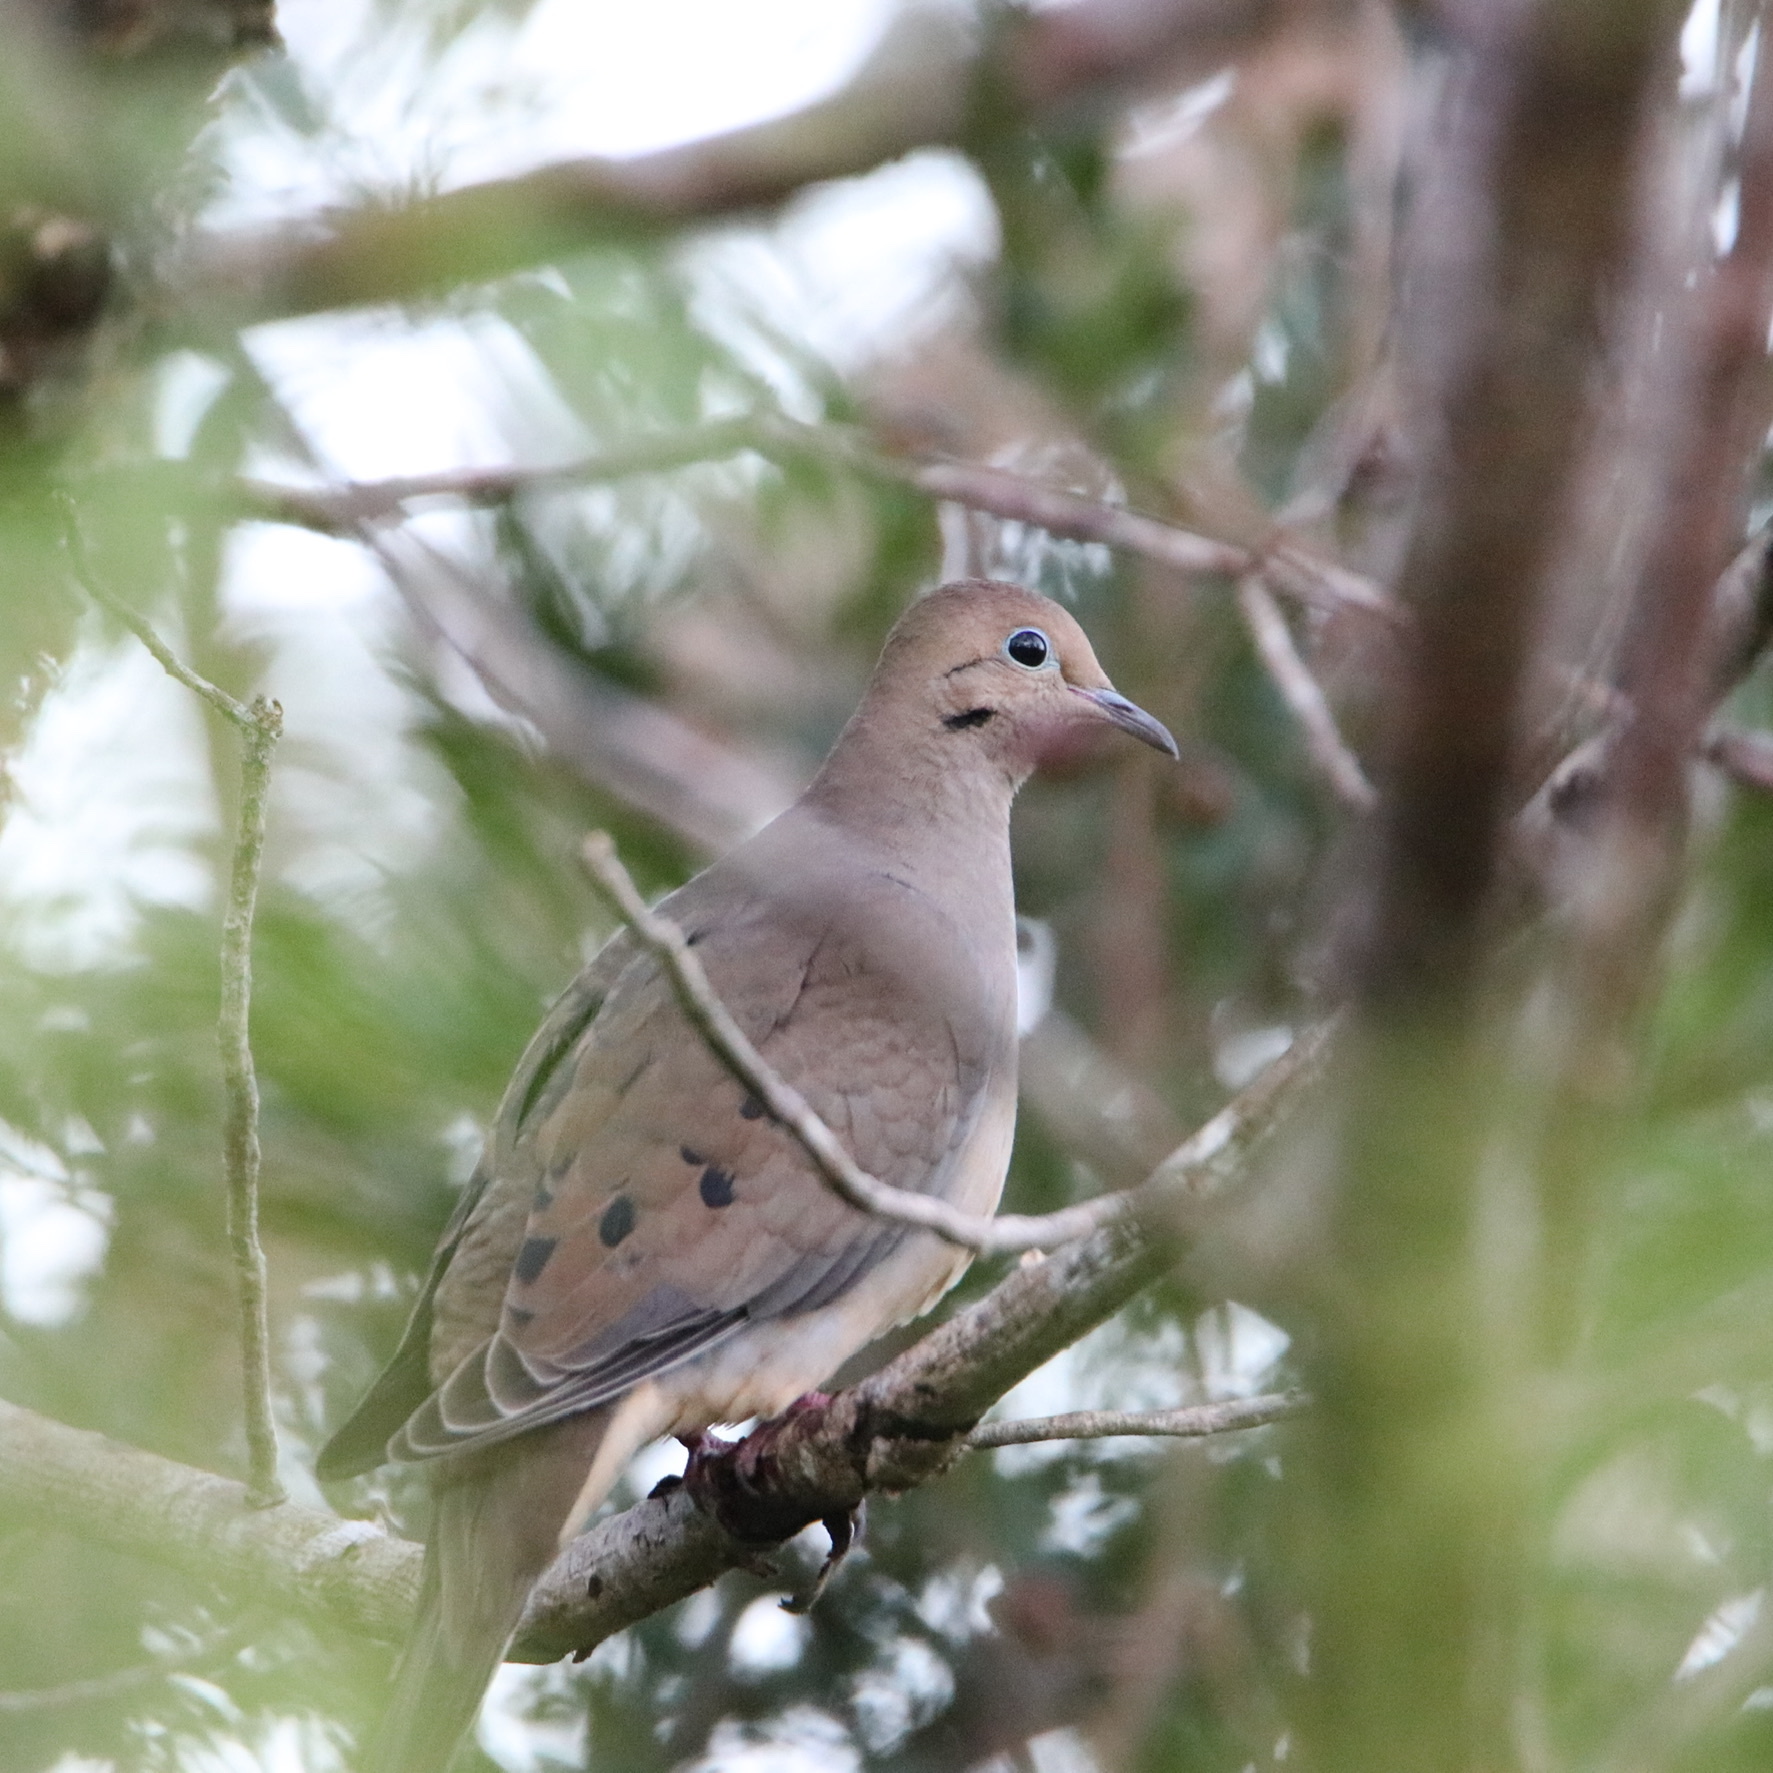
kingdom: Animalia
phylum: Chordata
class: Aves
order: Columbiformes
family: Columbidae
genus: Zenaida
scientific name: Zenaida macroura
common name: Mourning dove
